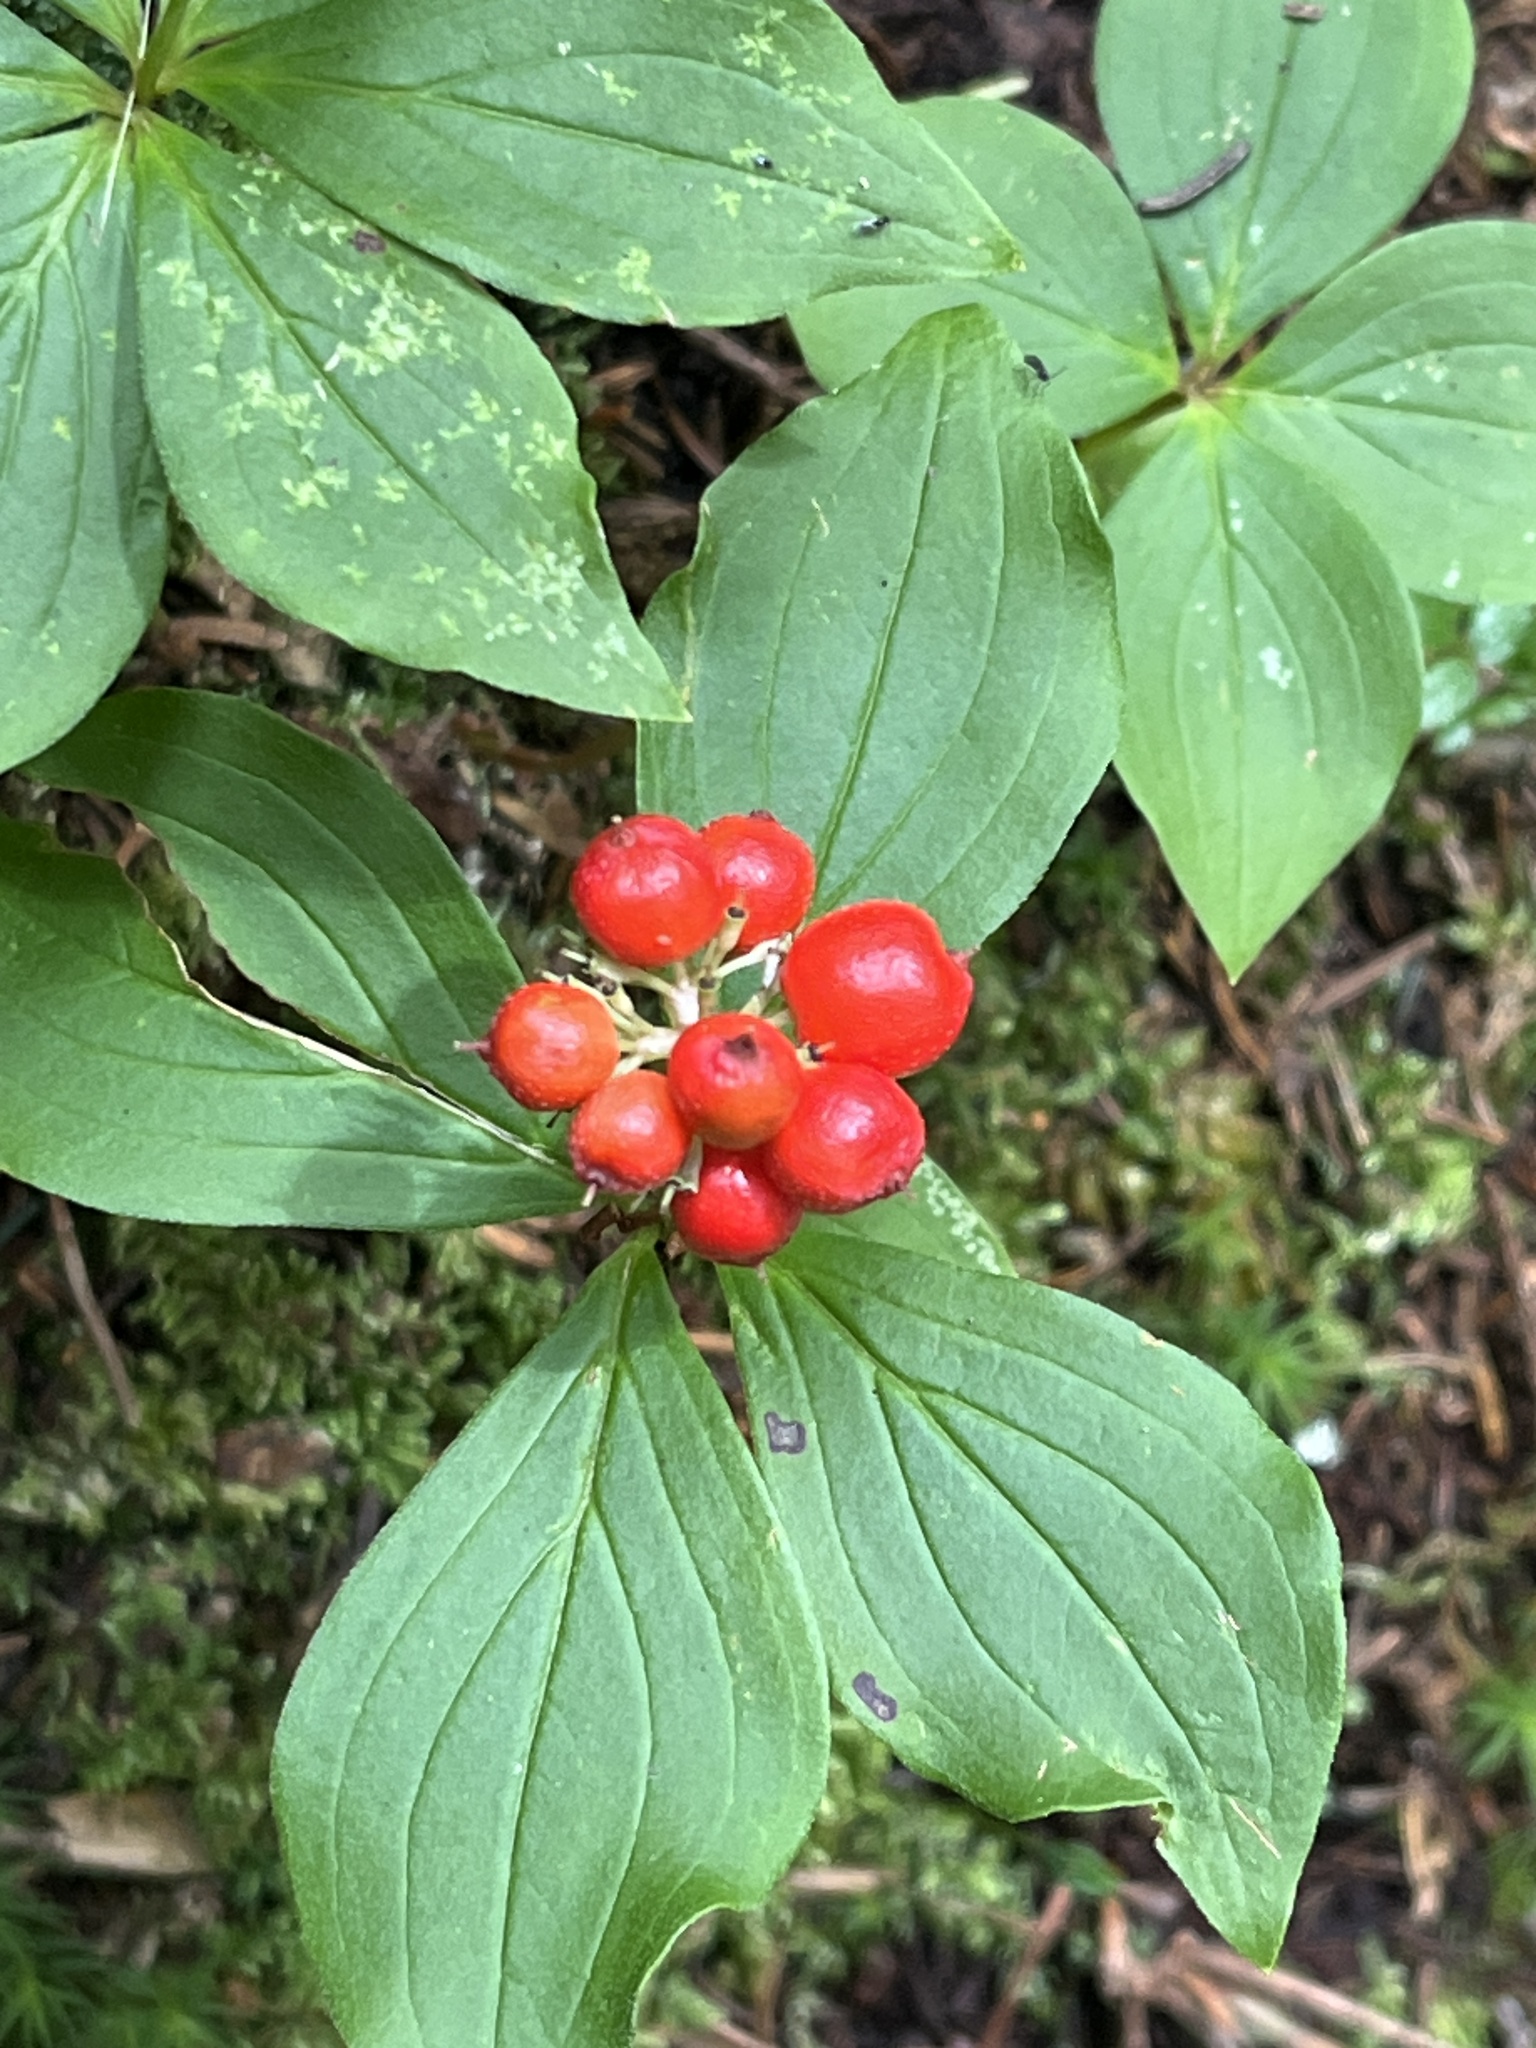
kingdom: Plantae
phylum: Tracheophyta
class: Magnoliopsida
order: Cornales
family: Cornaceae
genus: Cornus
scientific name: Cornus canadensis
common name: Creeping dogwood
